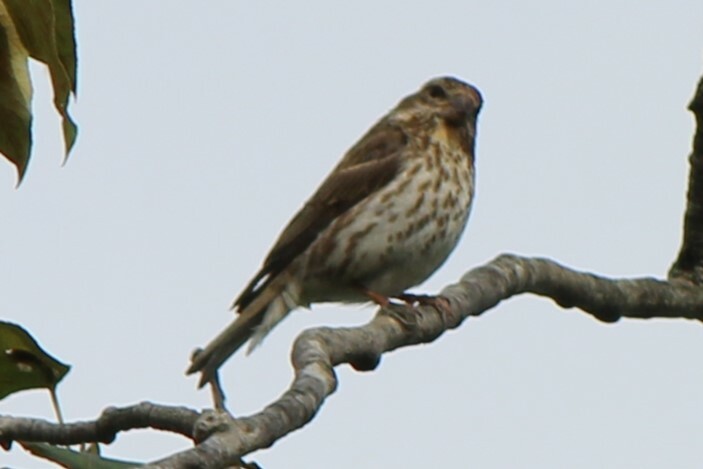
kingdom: Animalia
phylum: Chordata
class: Aves
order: Passeriformes
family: Fringillidae
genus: Haemorhous
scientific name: Haemorhous purpureus
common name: Purple finch
